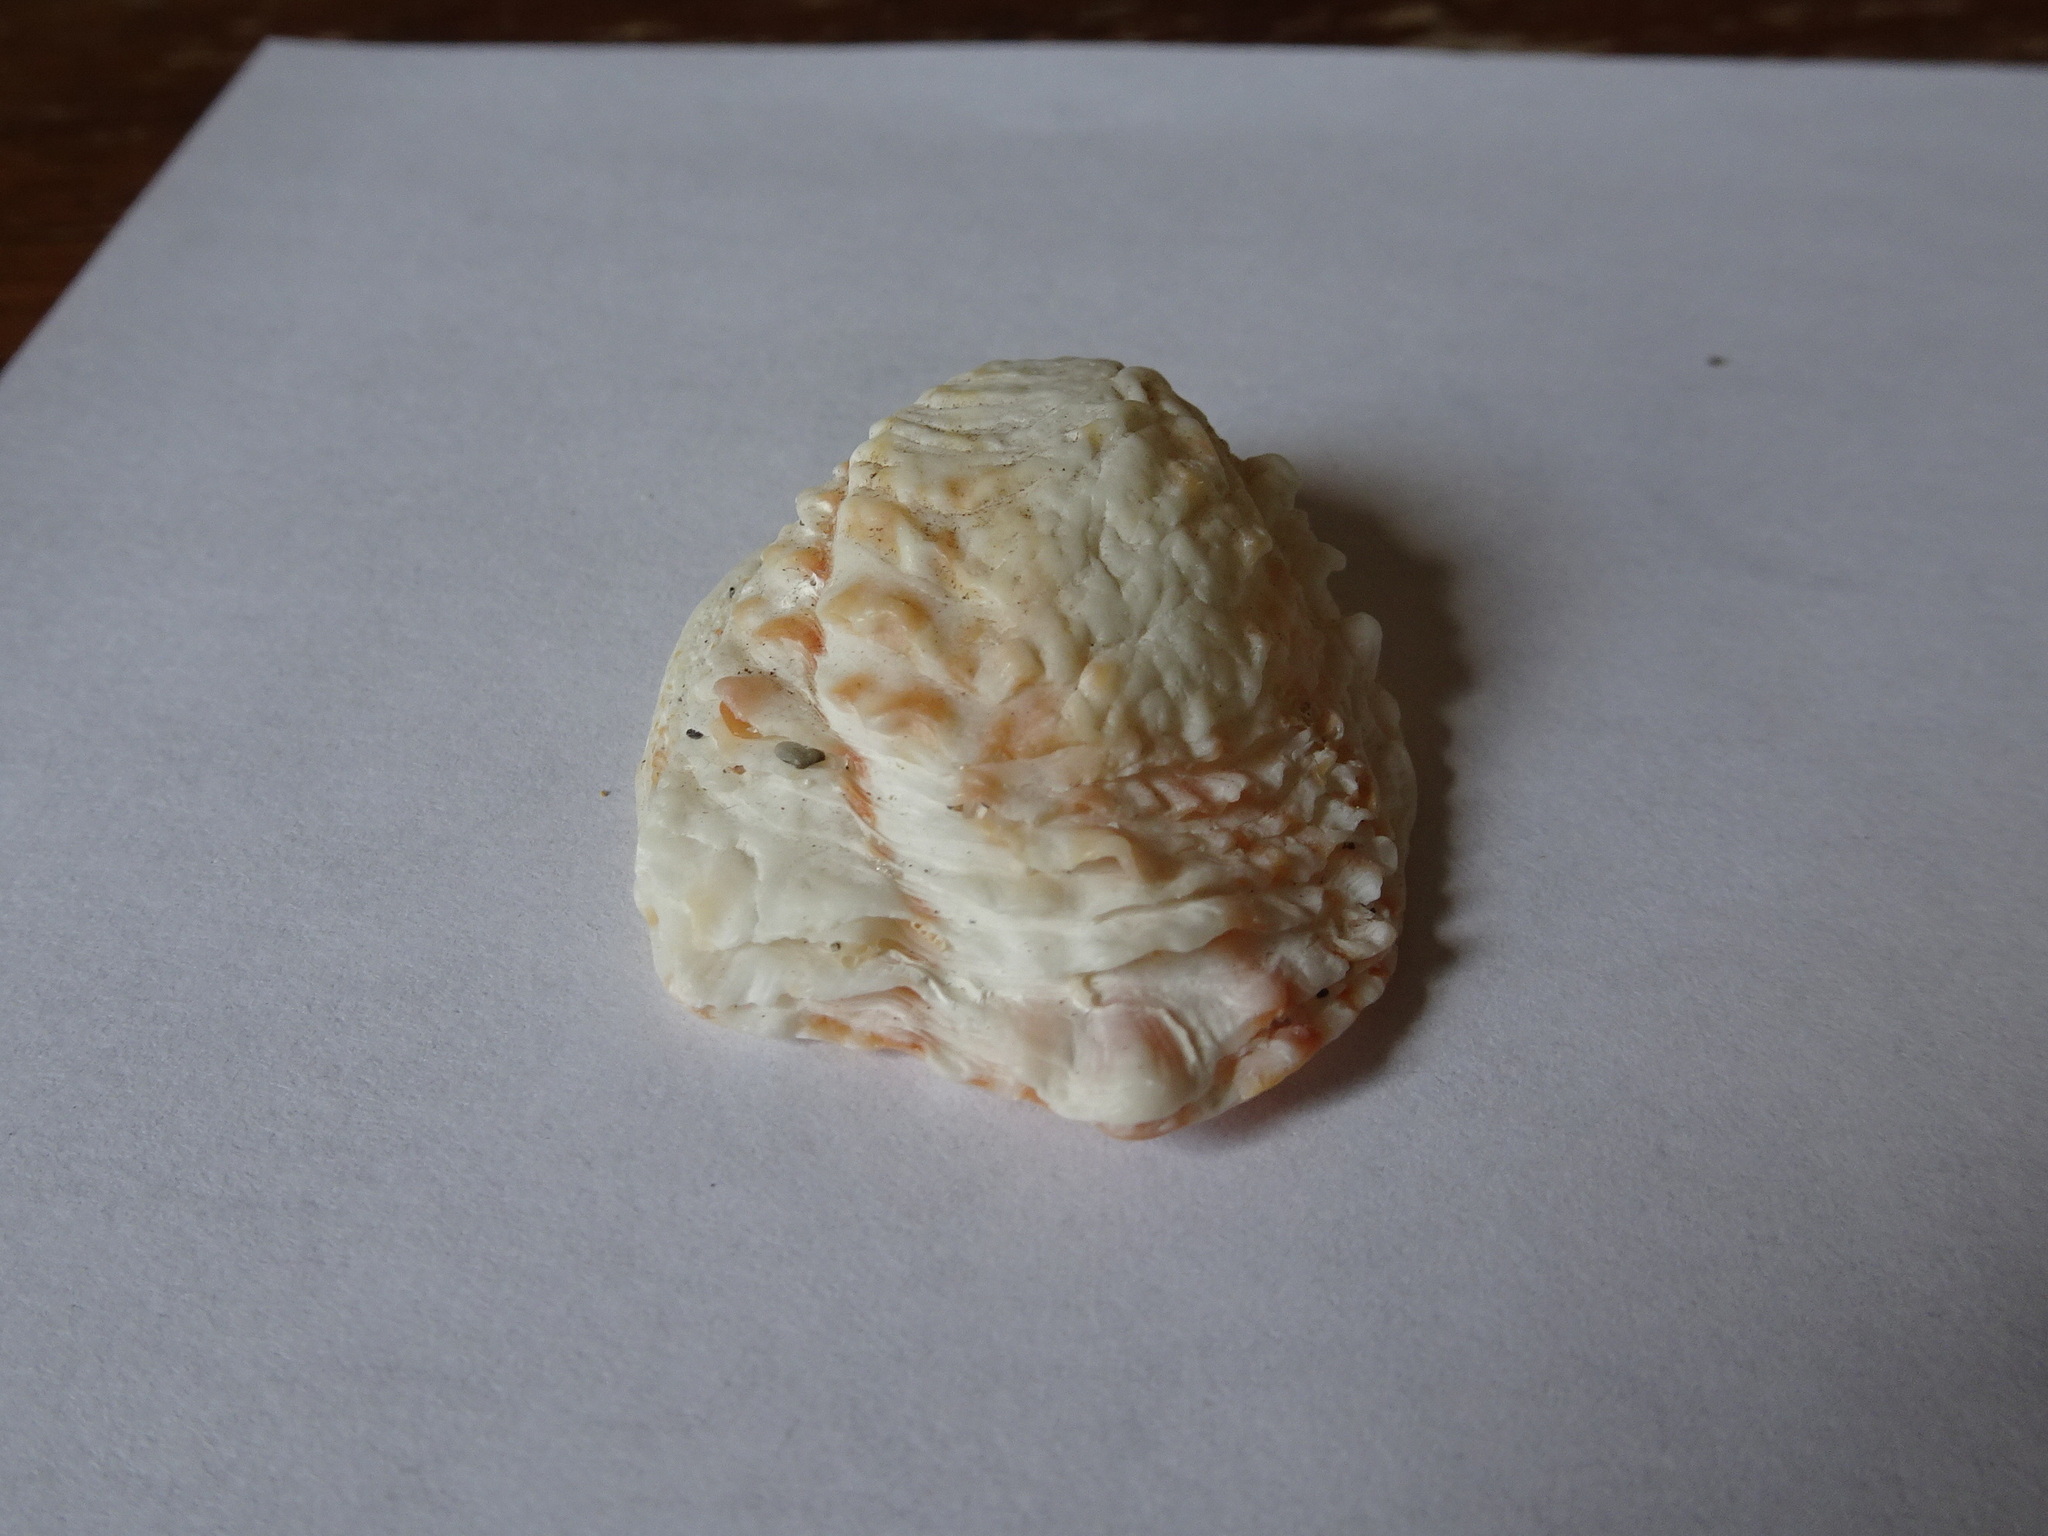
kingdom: Animalia
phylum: Mollusca
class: Bivalvia
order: Venerida
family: Chamidae
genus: Chama
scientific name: Chama congregata
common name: Corrugate jewelbox
